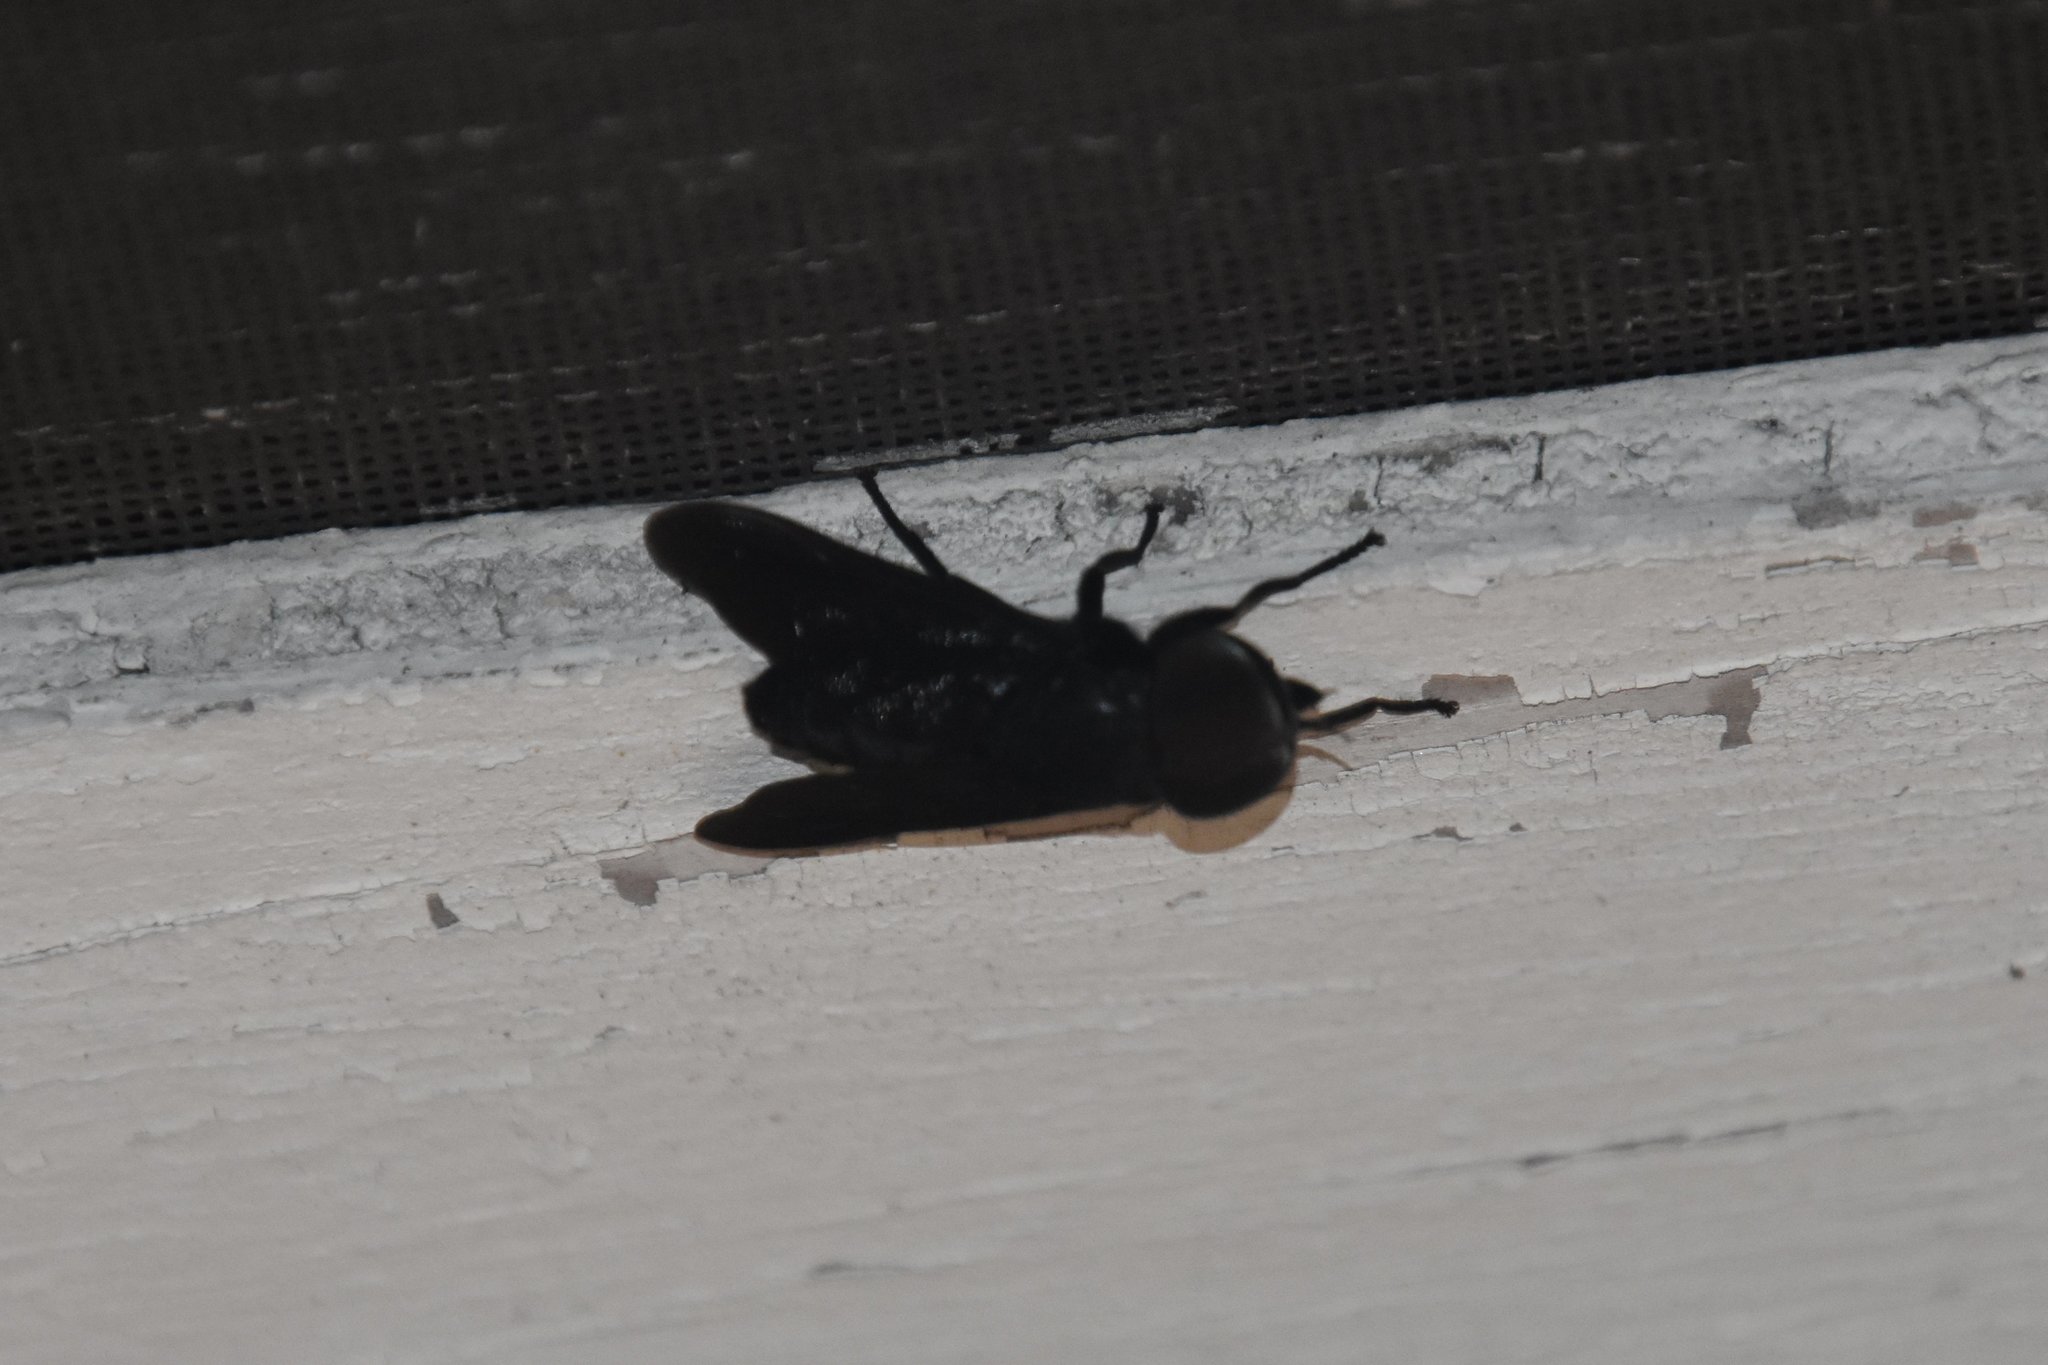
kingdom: Animalia
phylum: Arthropoda
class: Insecta
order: Diptera
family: Tabanidae
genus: Tabanus
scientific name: Tabanus atratus
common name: Black horse fly
